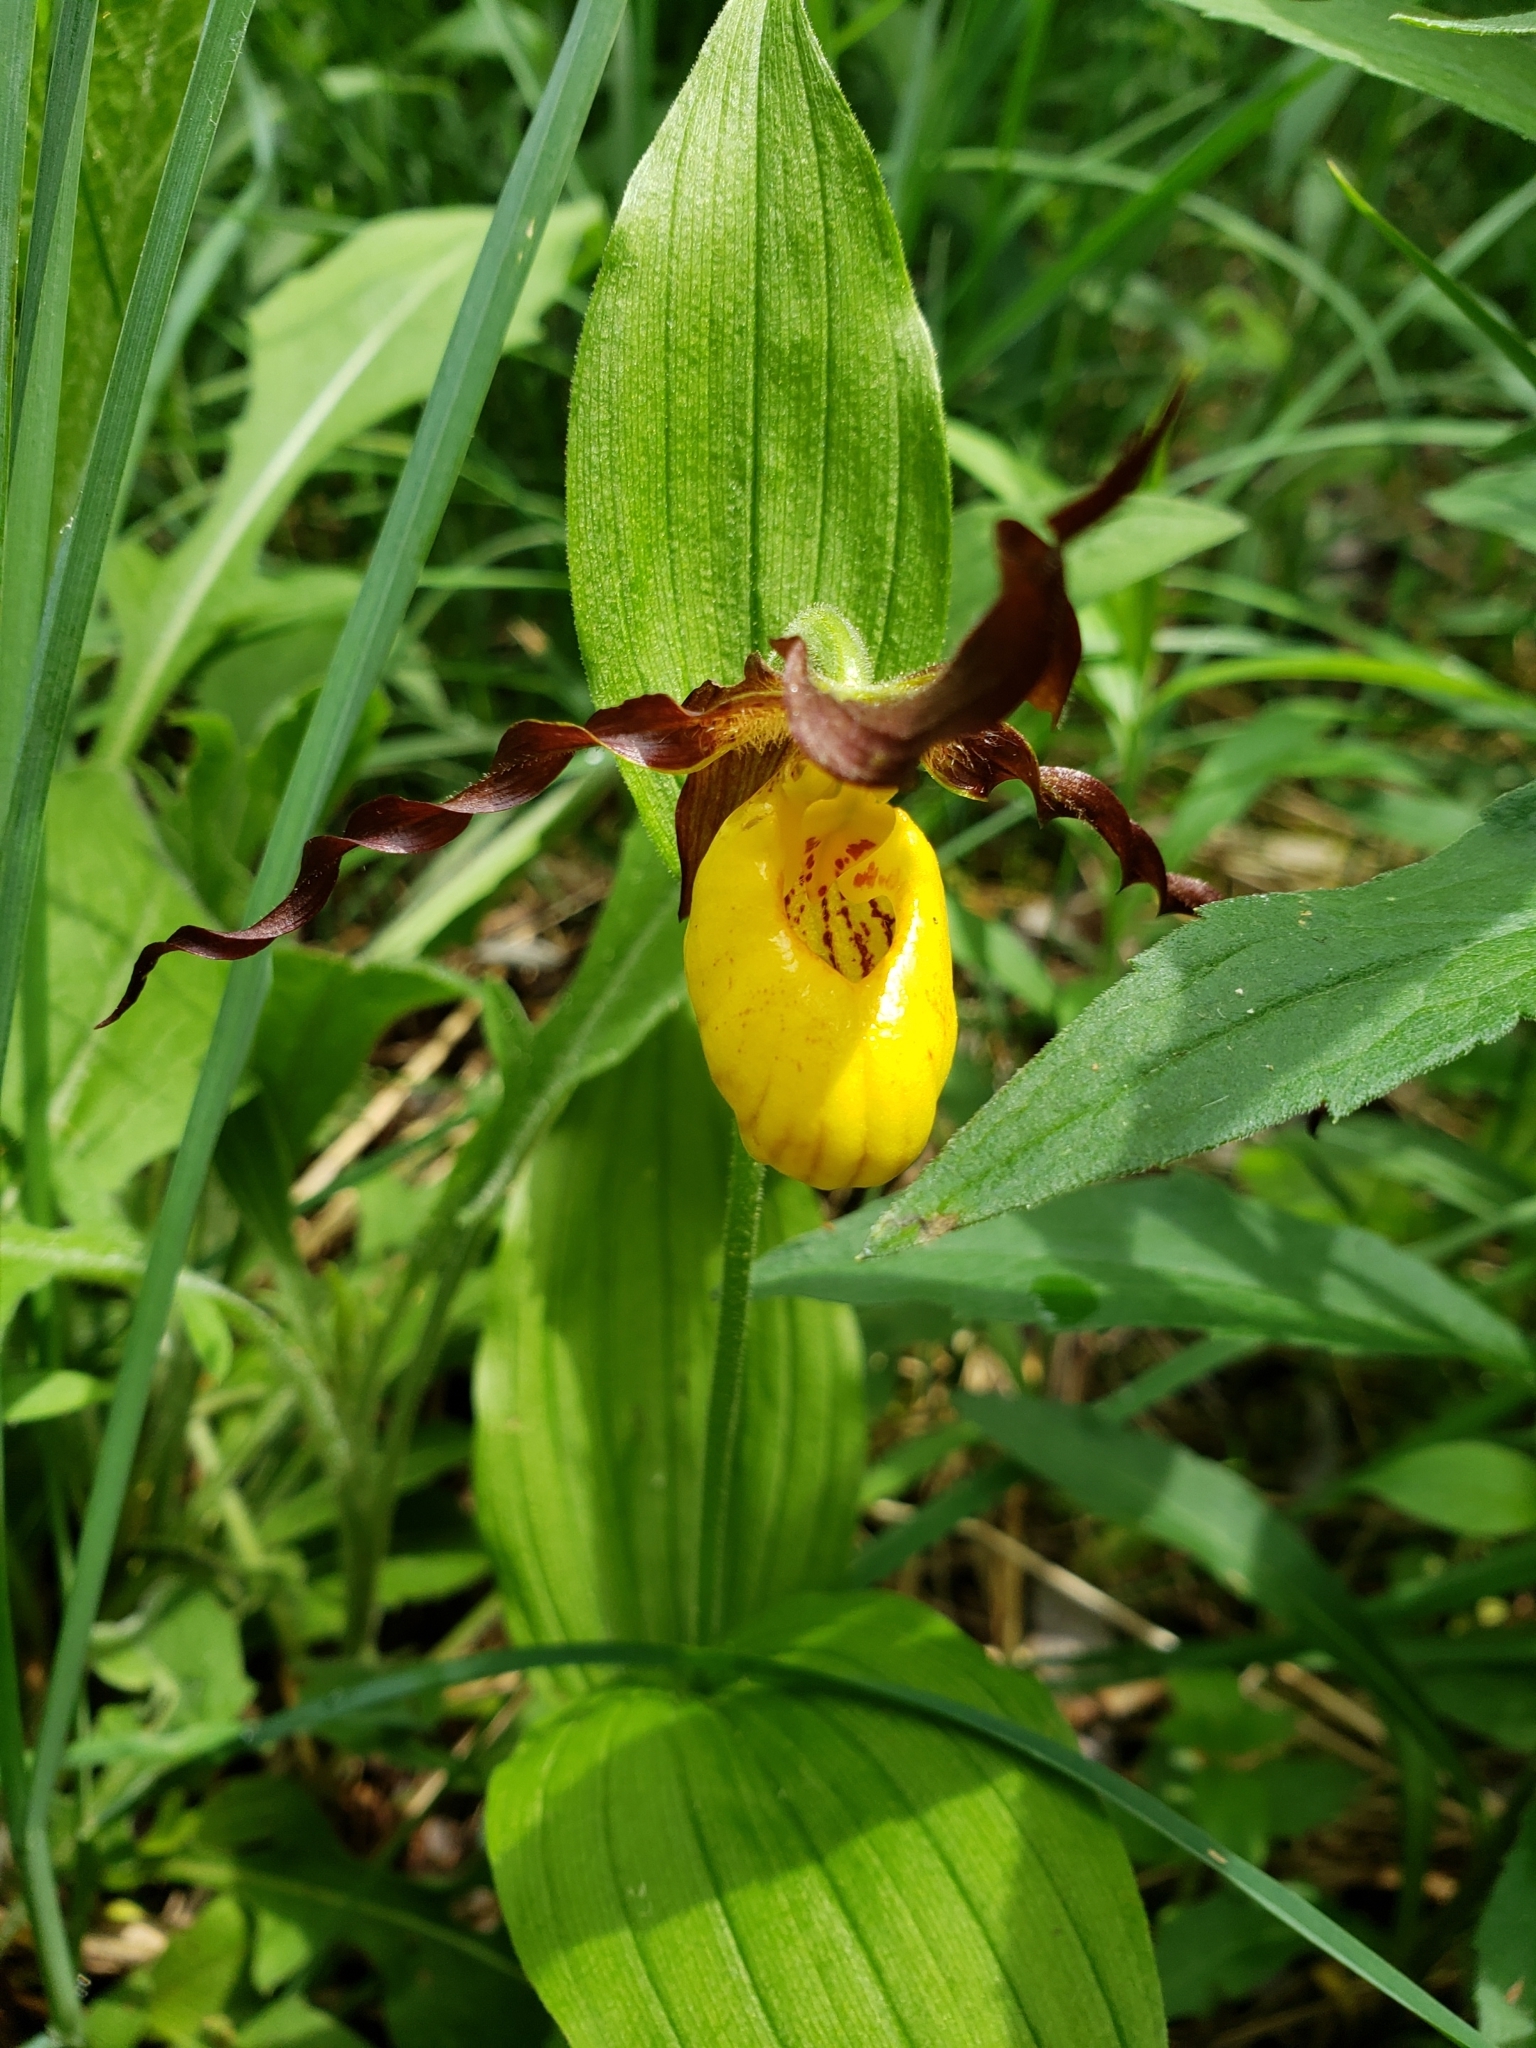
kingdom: Plantae
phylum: Tracheophyta
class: Liliopsida
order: Asparagales
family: Orchidaceae
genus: Cypripedium
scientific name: Cypripedium parviflorum
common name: American yellow lady's-slipper
